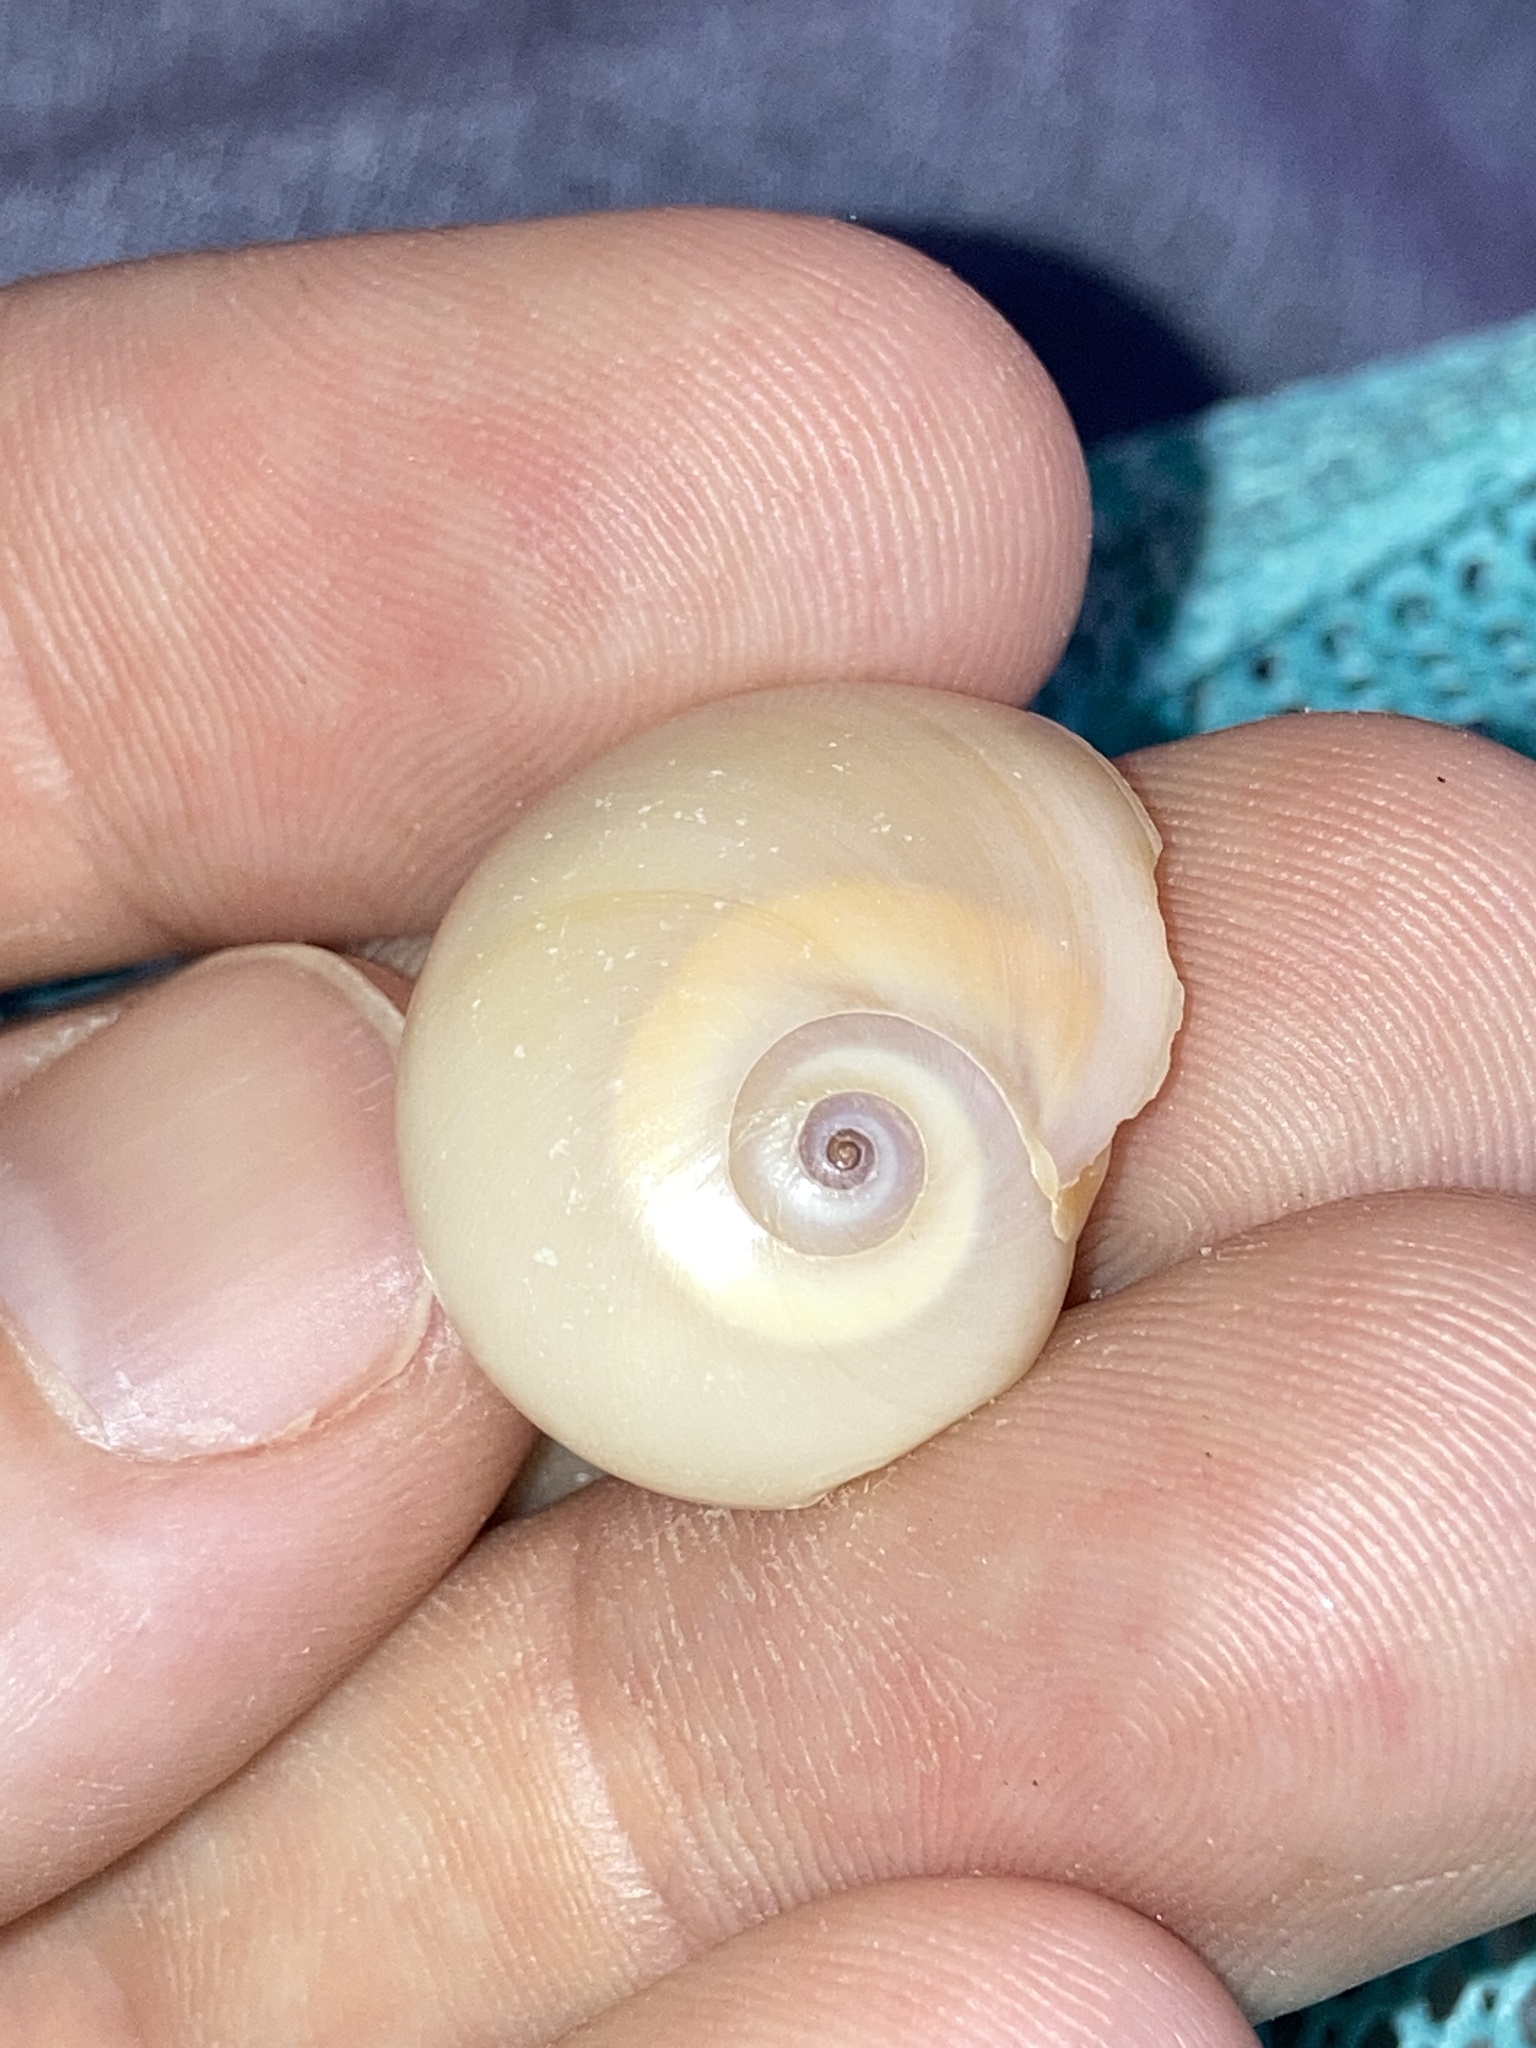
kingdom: Animalia
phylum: Mollusca
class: Gastropoda
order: Littorinimorpha
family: Naticidae
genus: Neverita
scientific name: Neverita duplicata
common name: Lobed moonsnail
